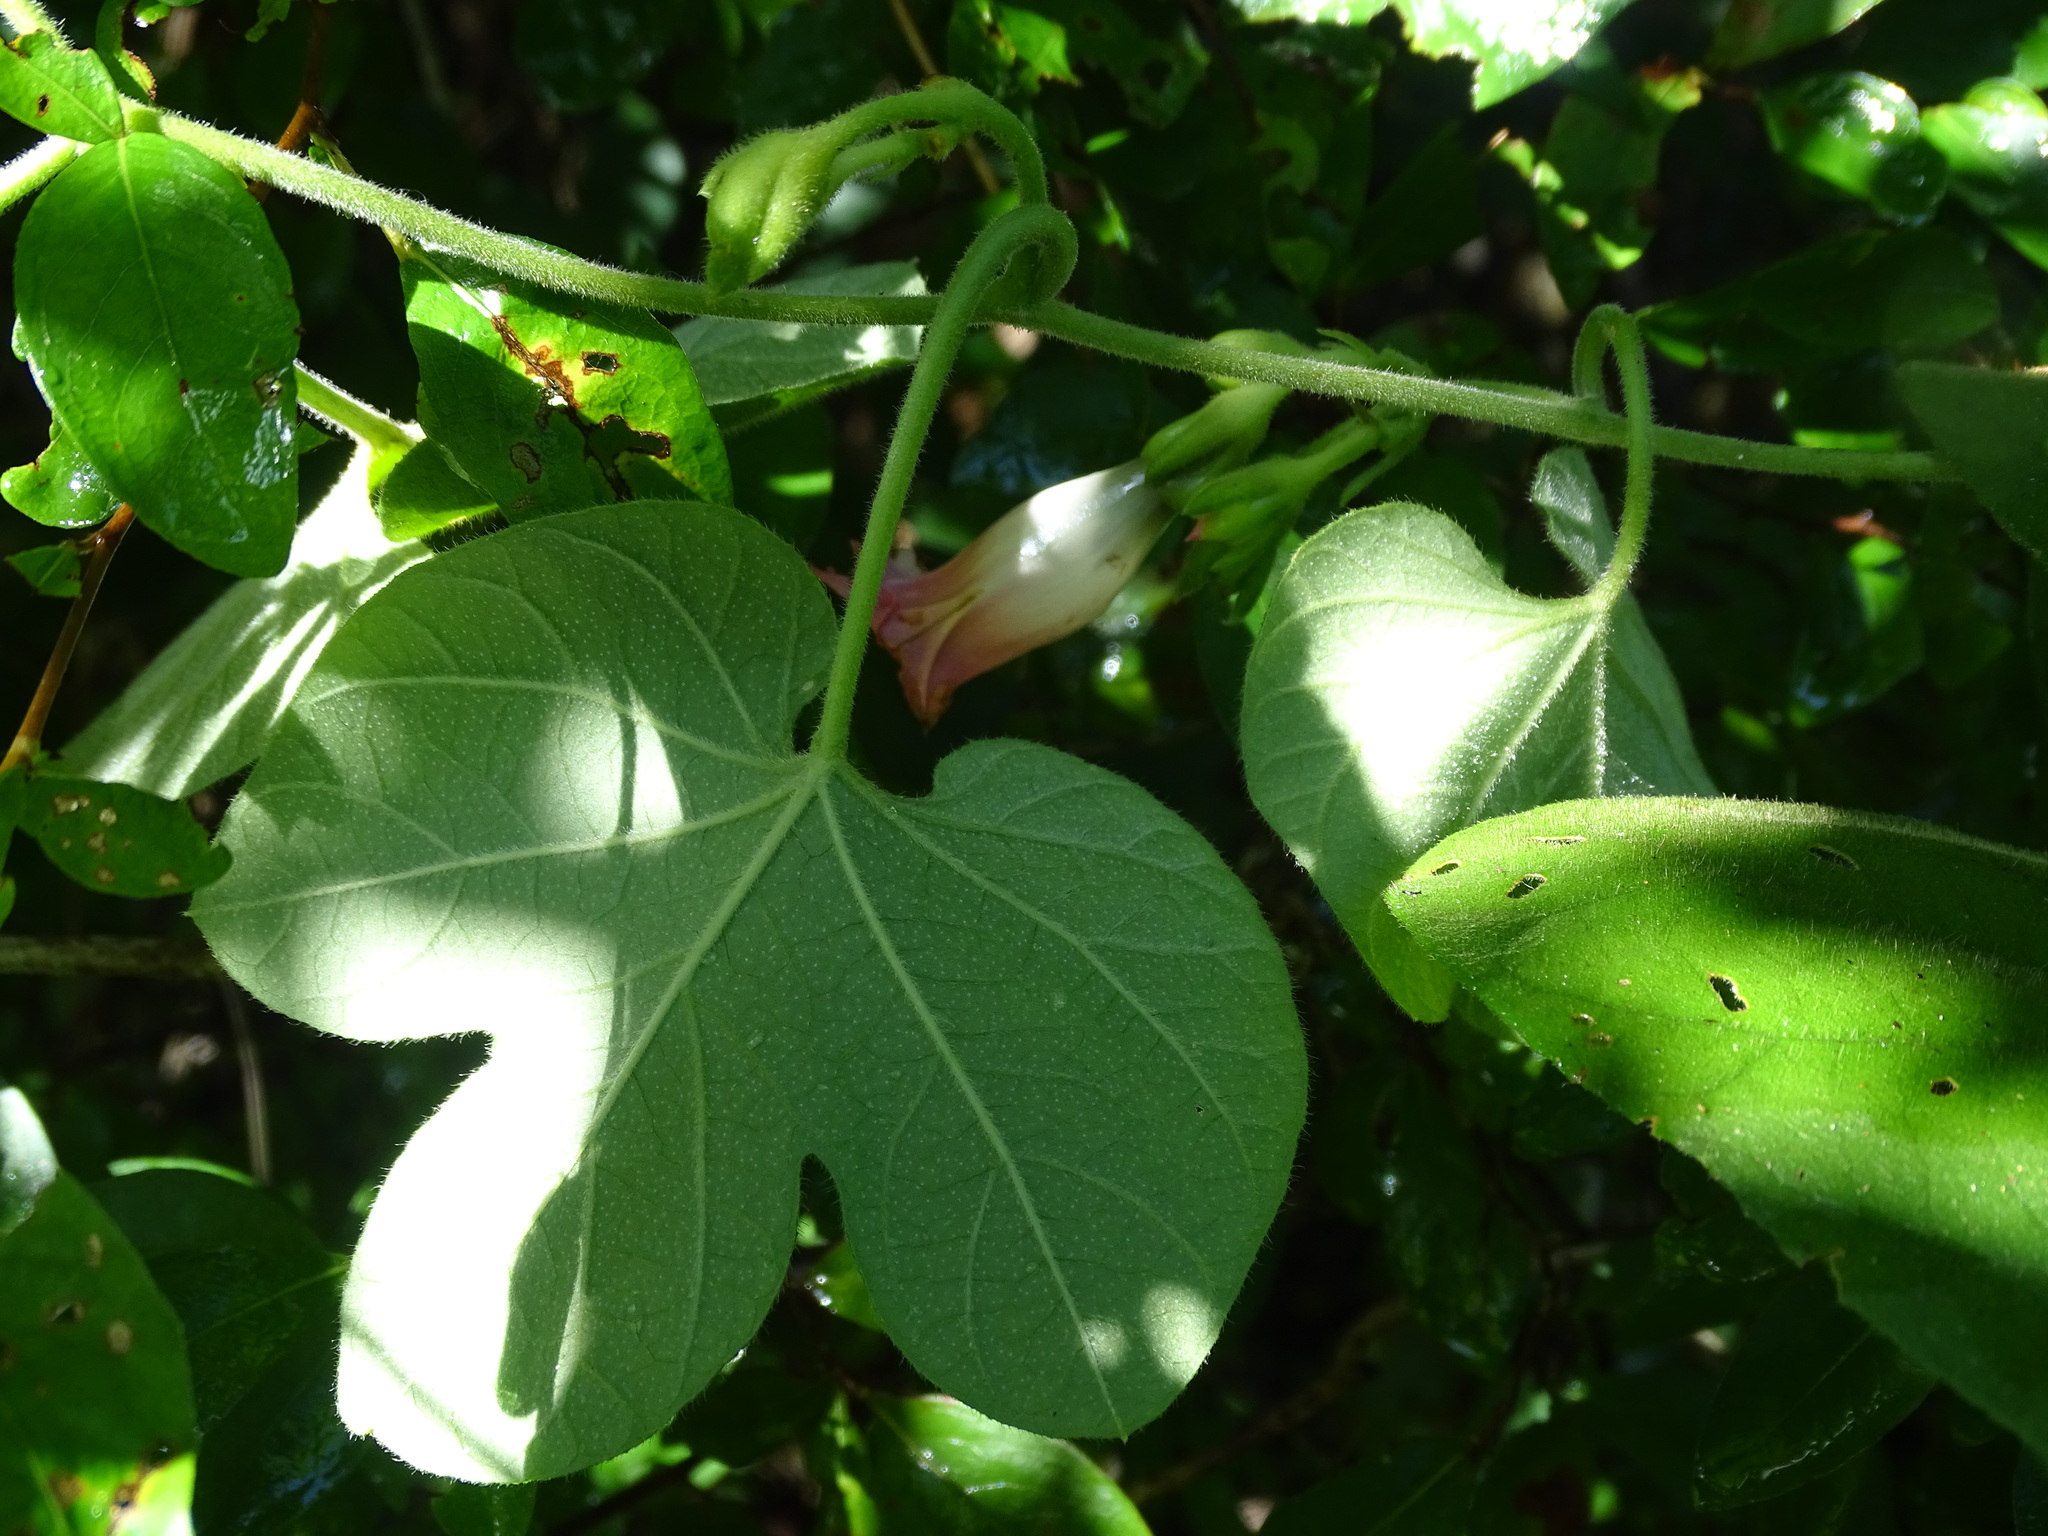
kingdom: Plantae
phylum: Tracheophyta
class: Magnoliopsida
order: Solanales
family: Convolvulaceae
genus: Ipomoea
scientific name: Ipomoea peteri
